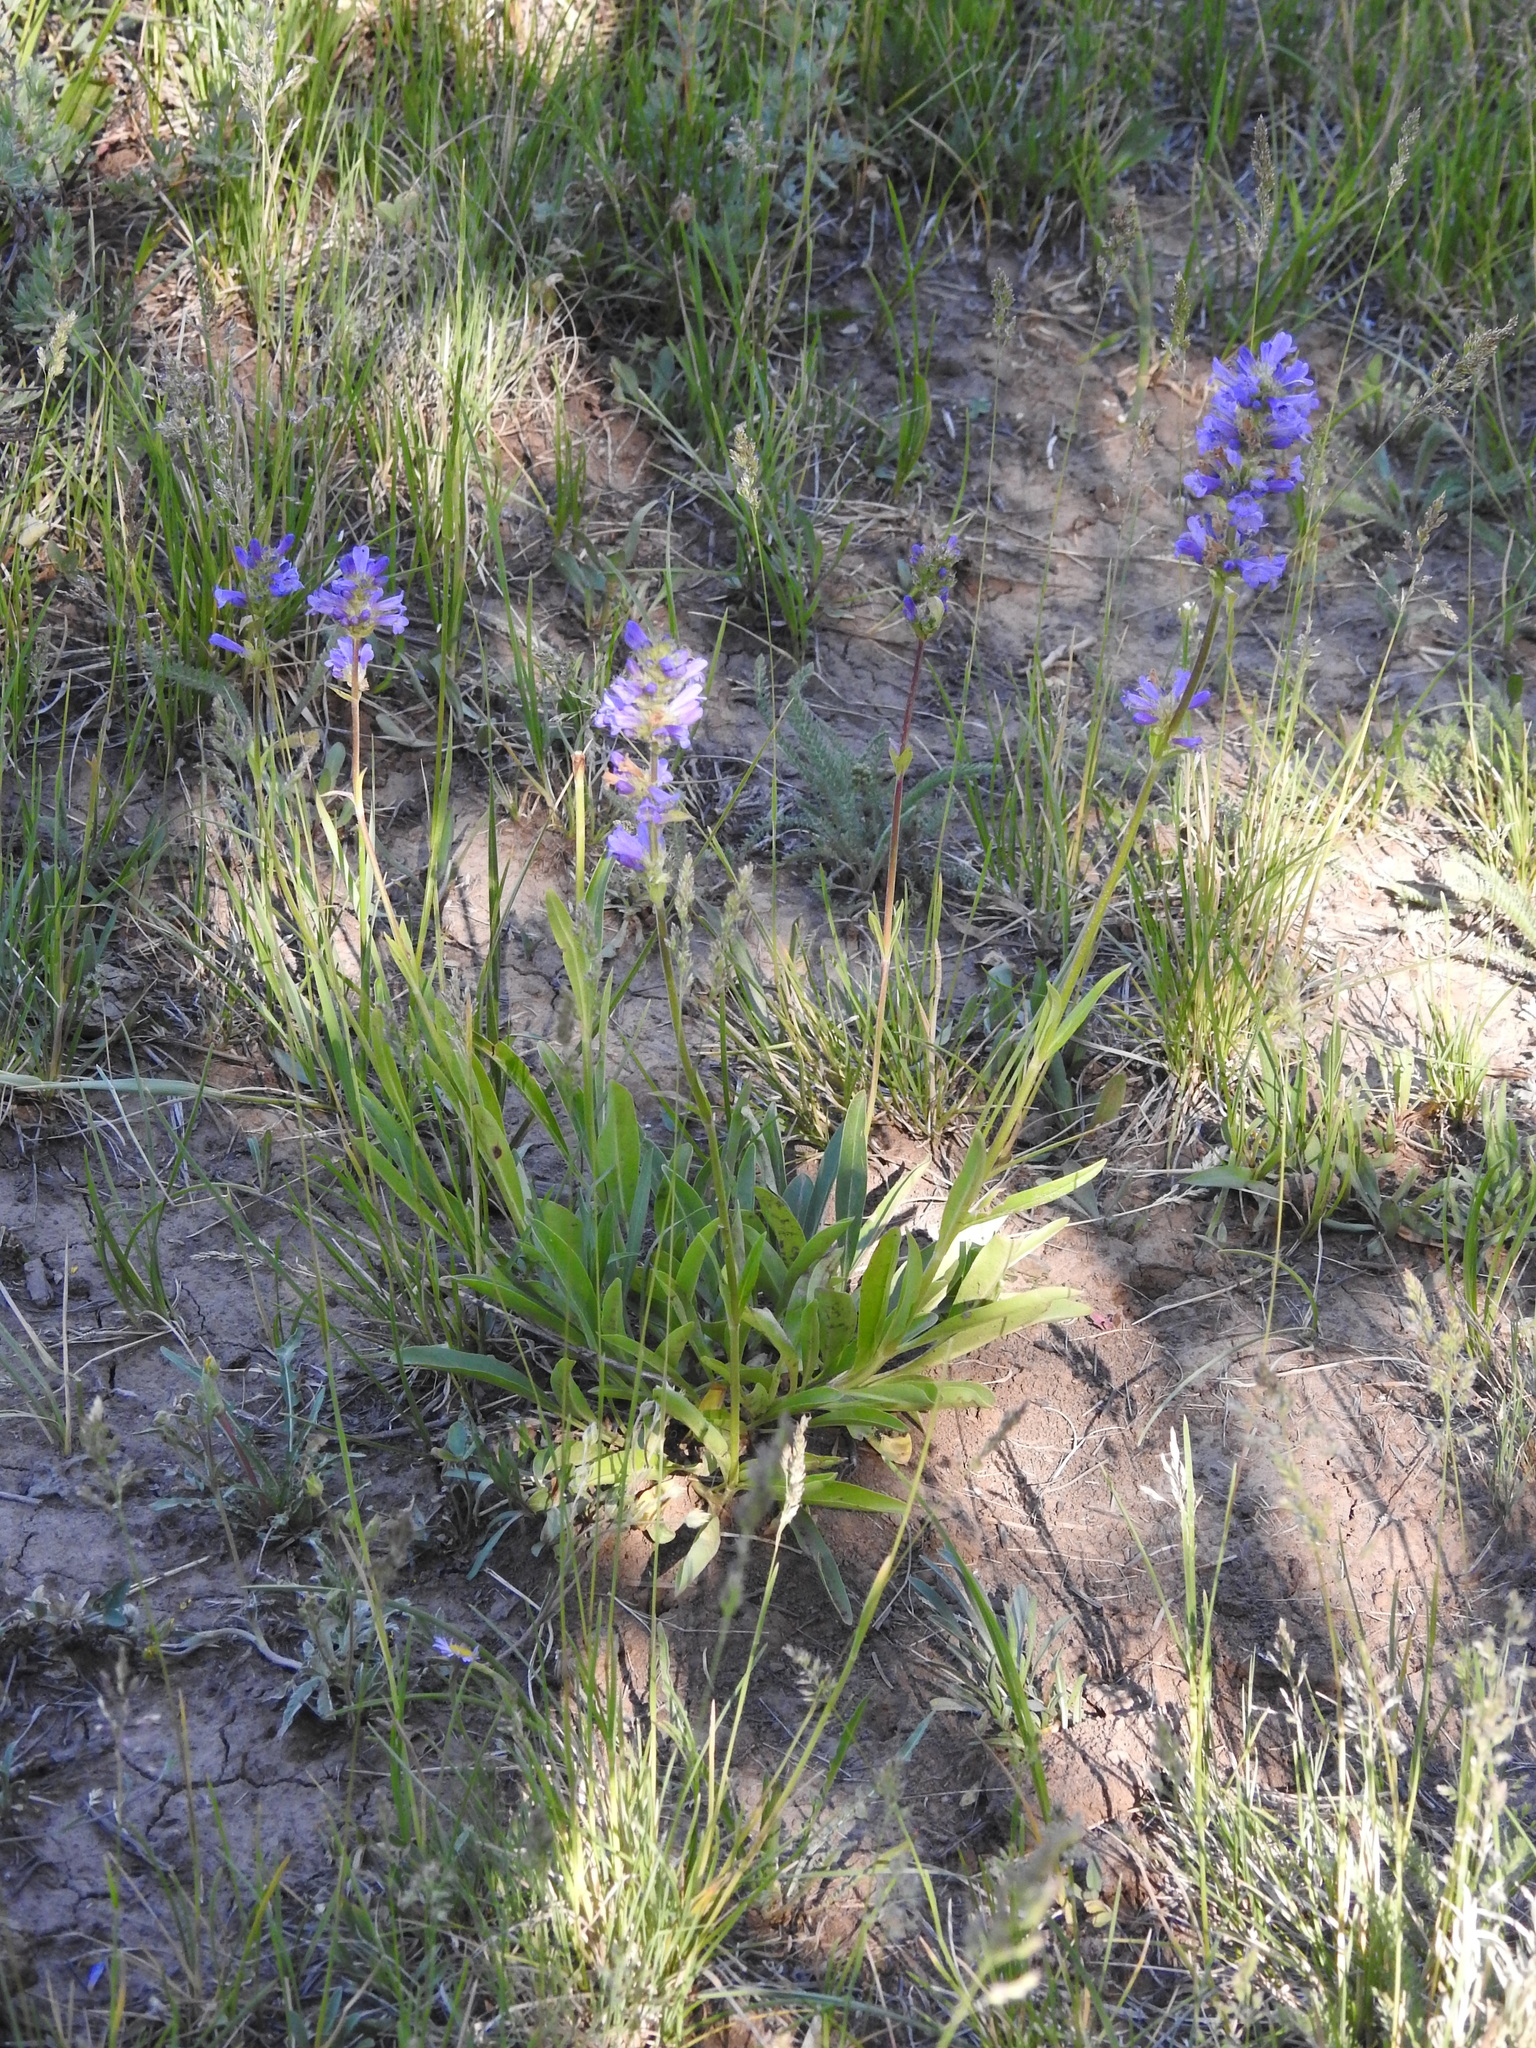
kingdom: Plantae
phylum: Tracheophyta
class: Magnoliopsida
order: Lamiales
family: Plantaginaceae
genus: Penstemon
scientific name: Penstemon rydbergii
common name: Rydberg's beardtongue
